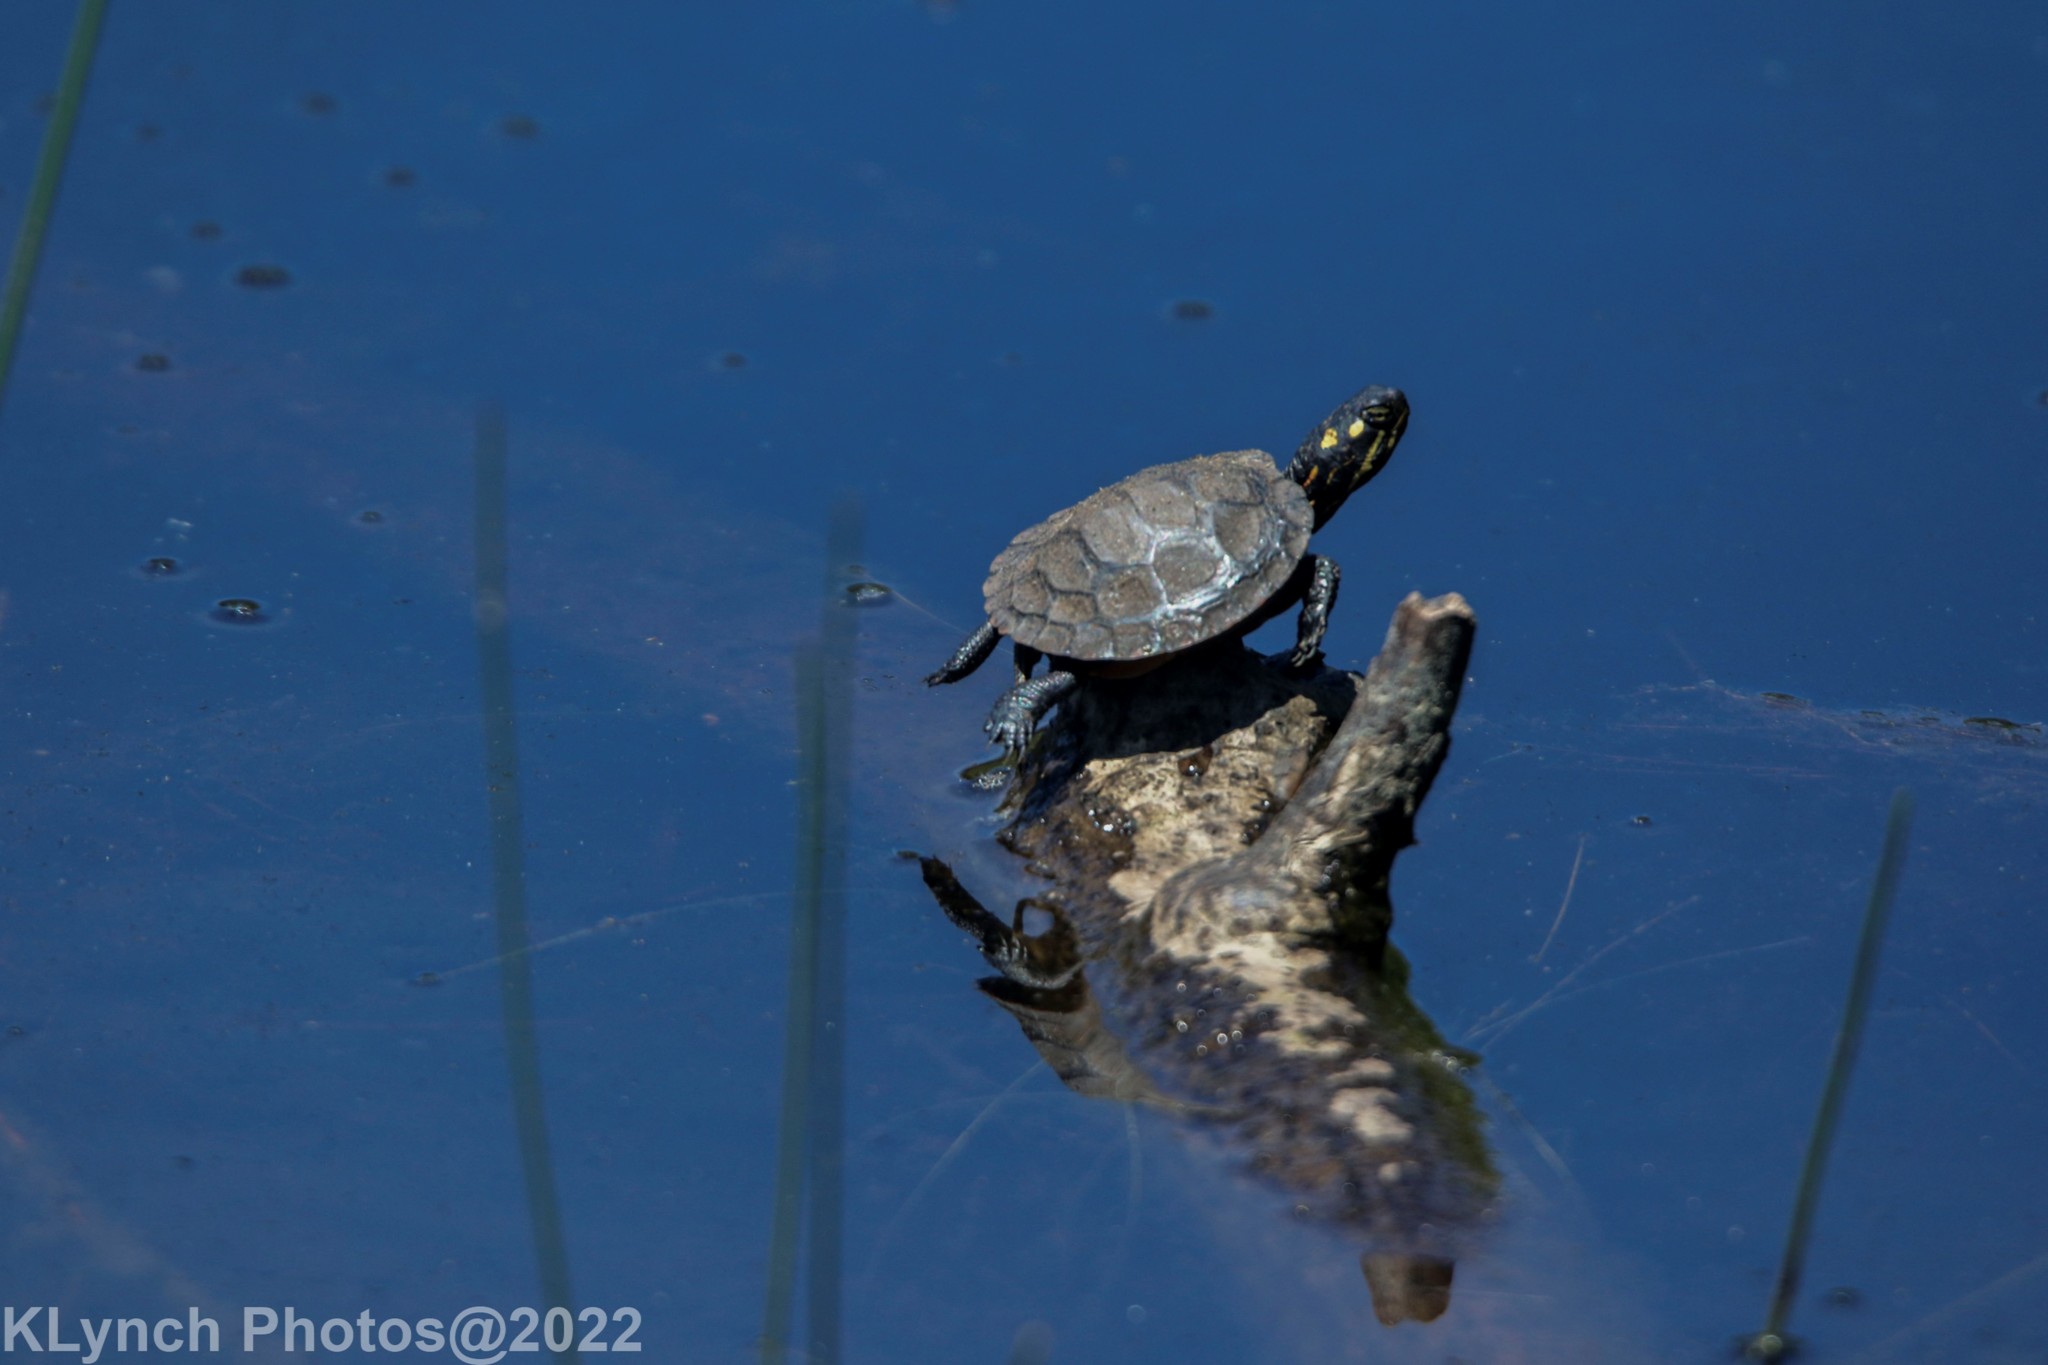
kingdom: Animalia
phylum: Chordata
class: Testudines
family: Emydidae
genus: Chrysemys
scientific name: Chrysemys picta
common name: Painted turtle
